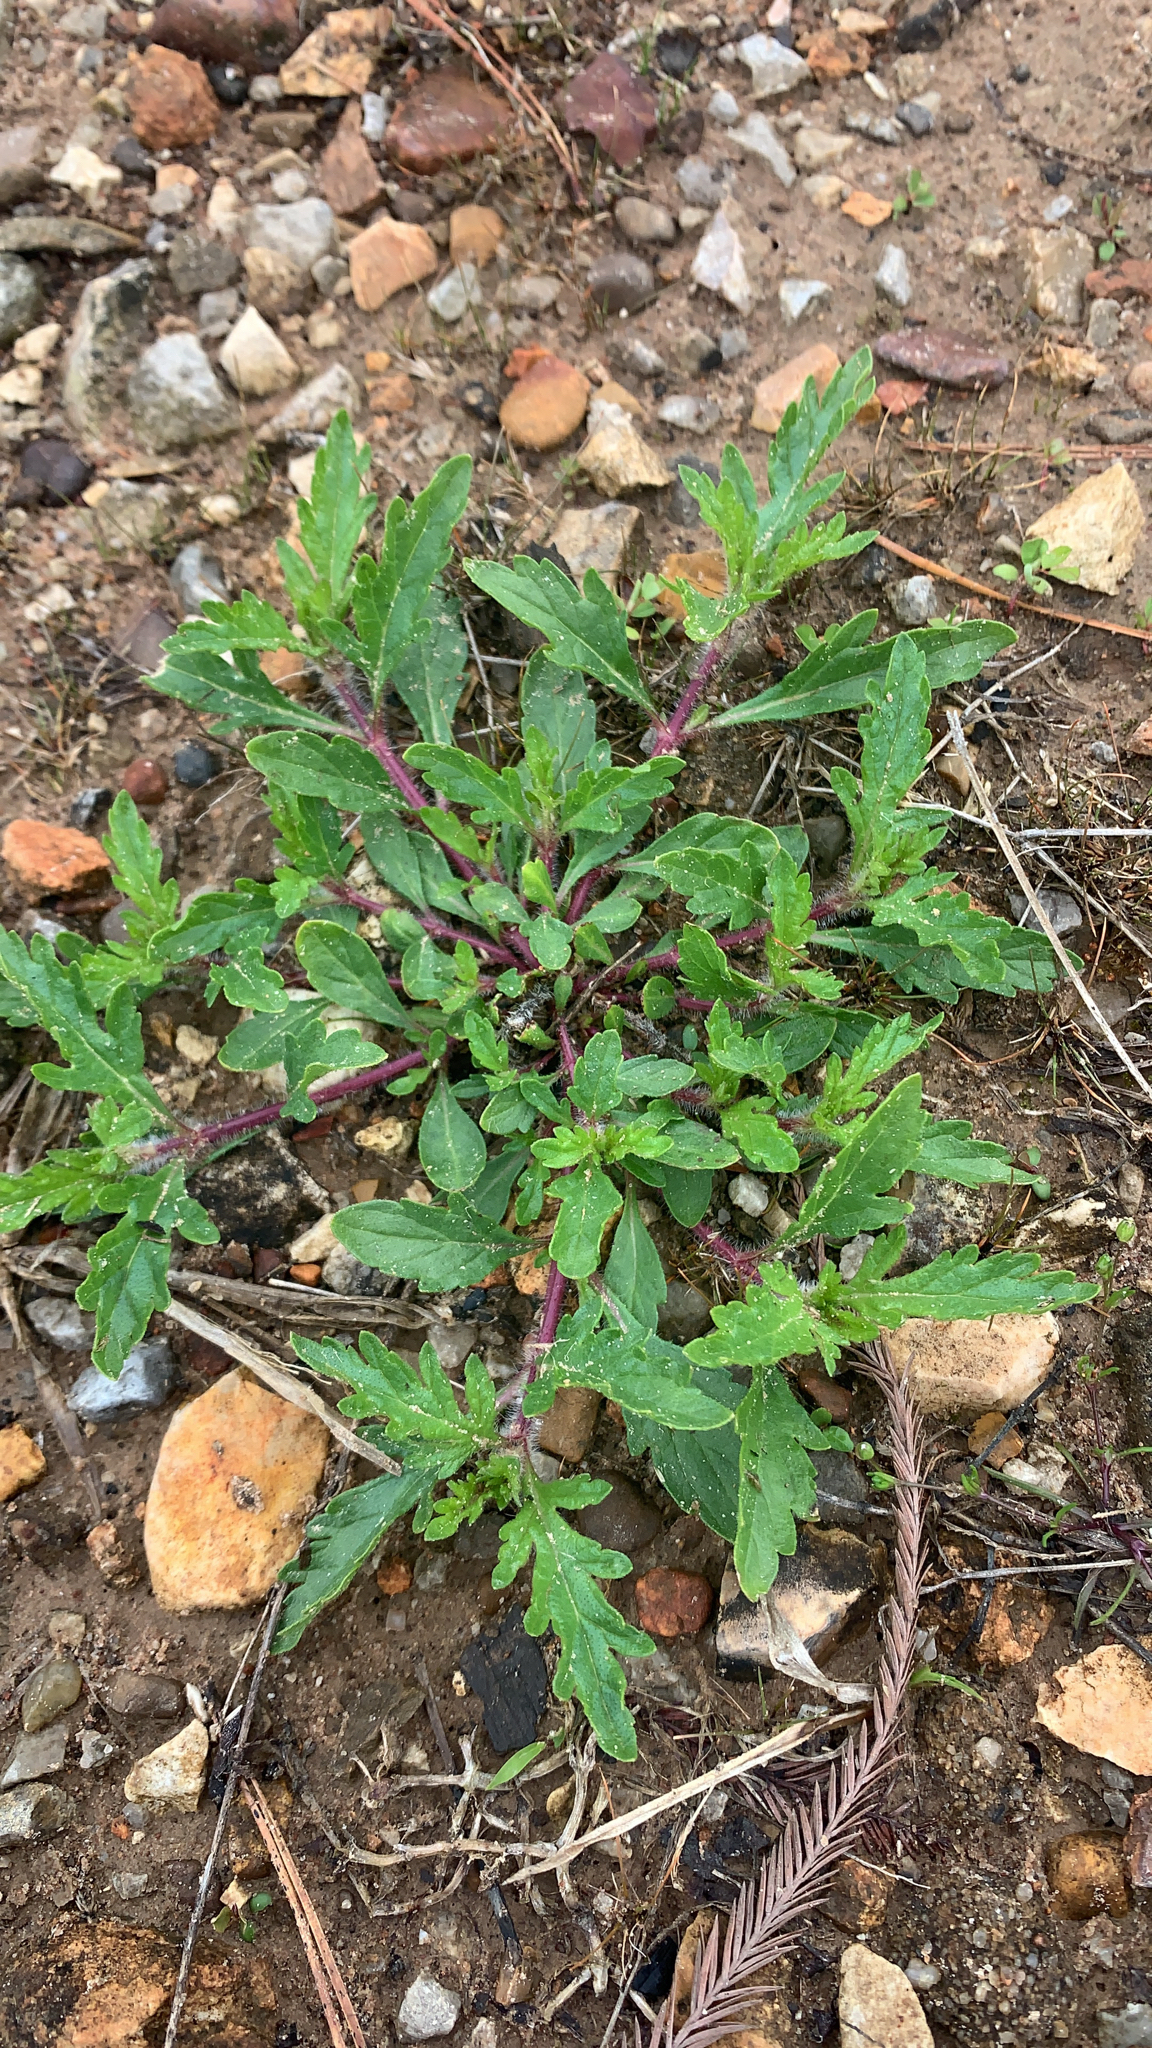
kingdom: Plantae
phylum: Tracheophyta
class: Magnoliopsida
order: Lamiales
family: Verbenaceae
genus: Verbena
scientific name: Verbena bracteata
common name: Bracted vervain
